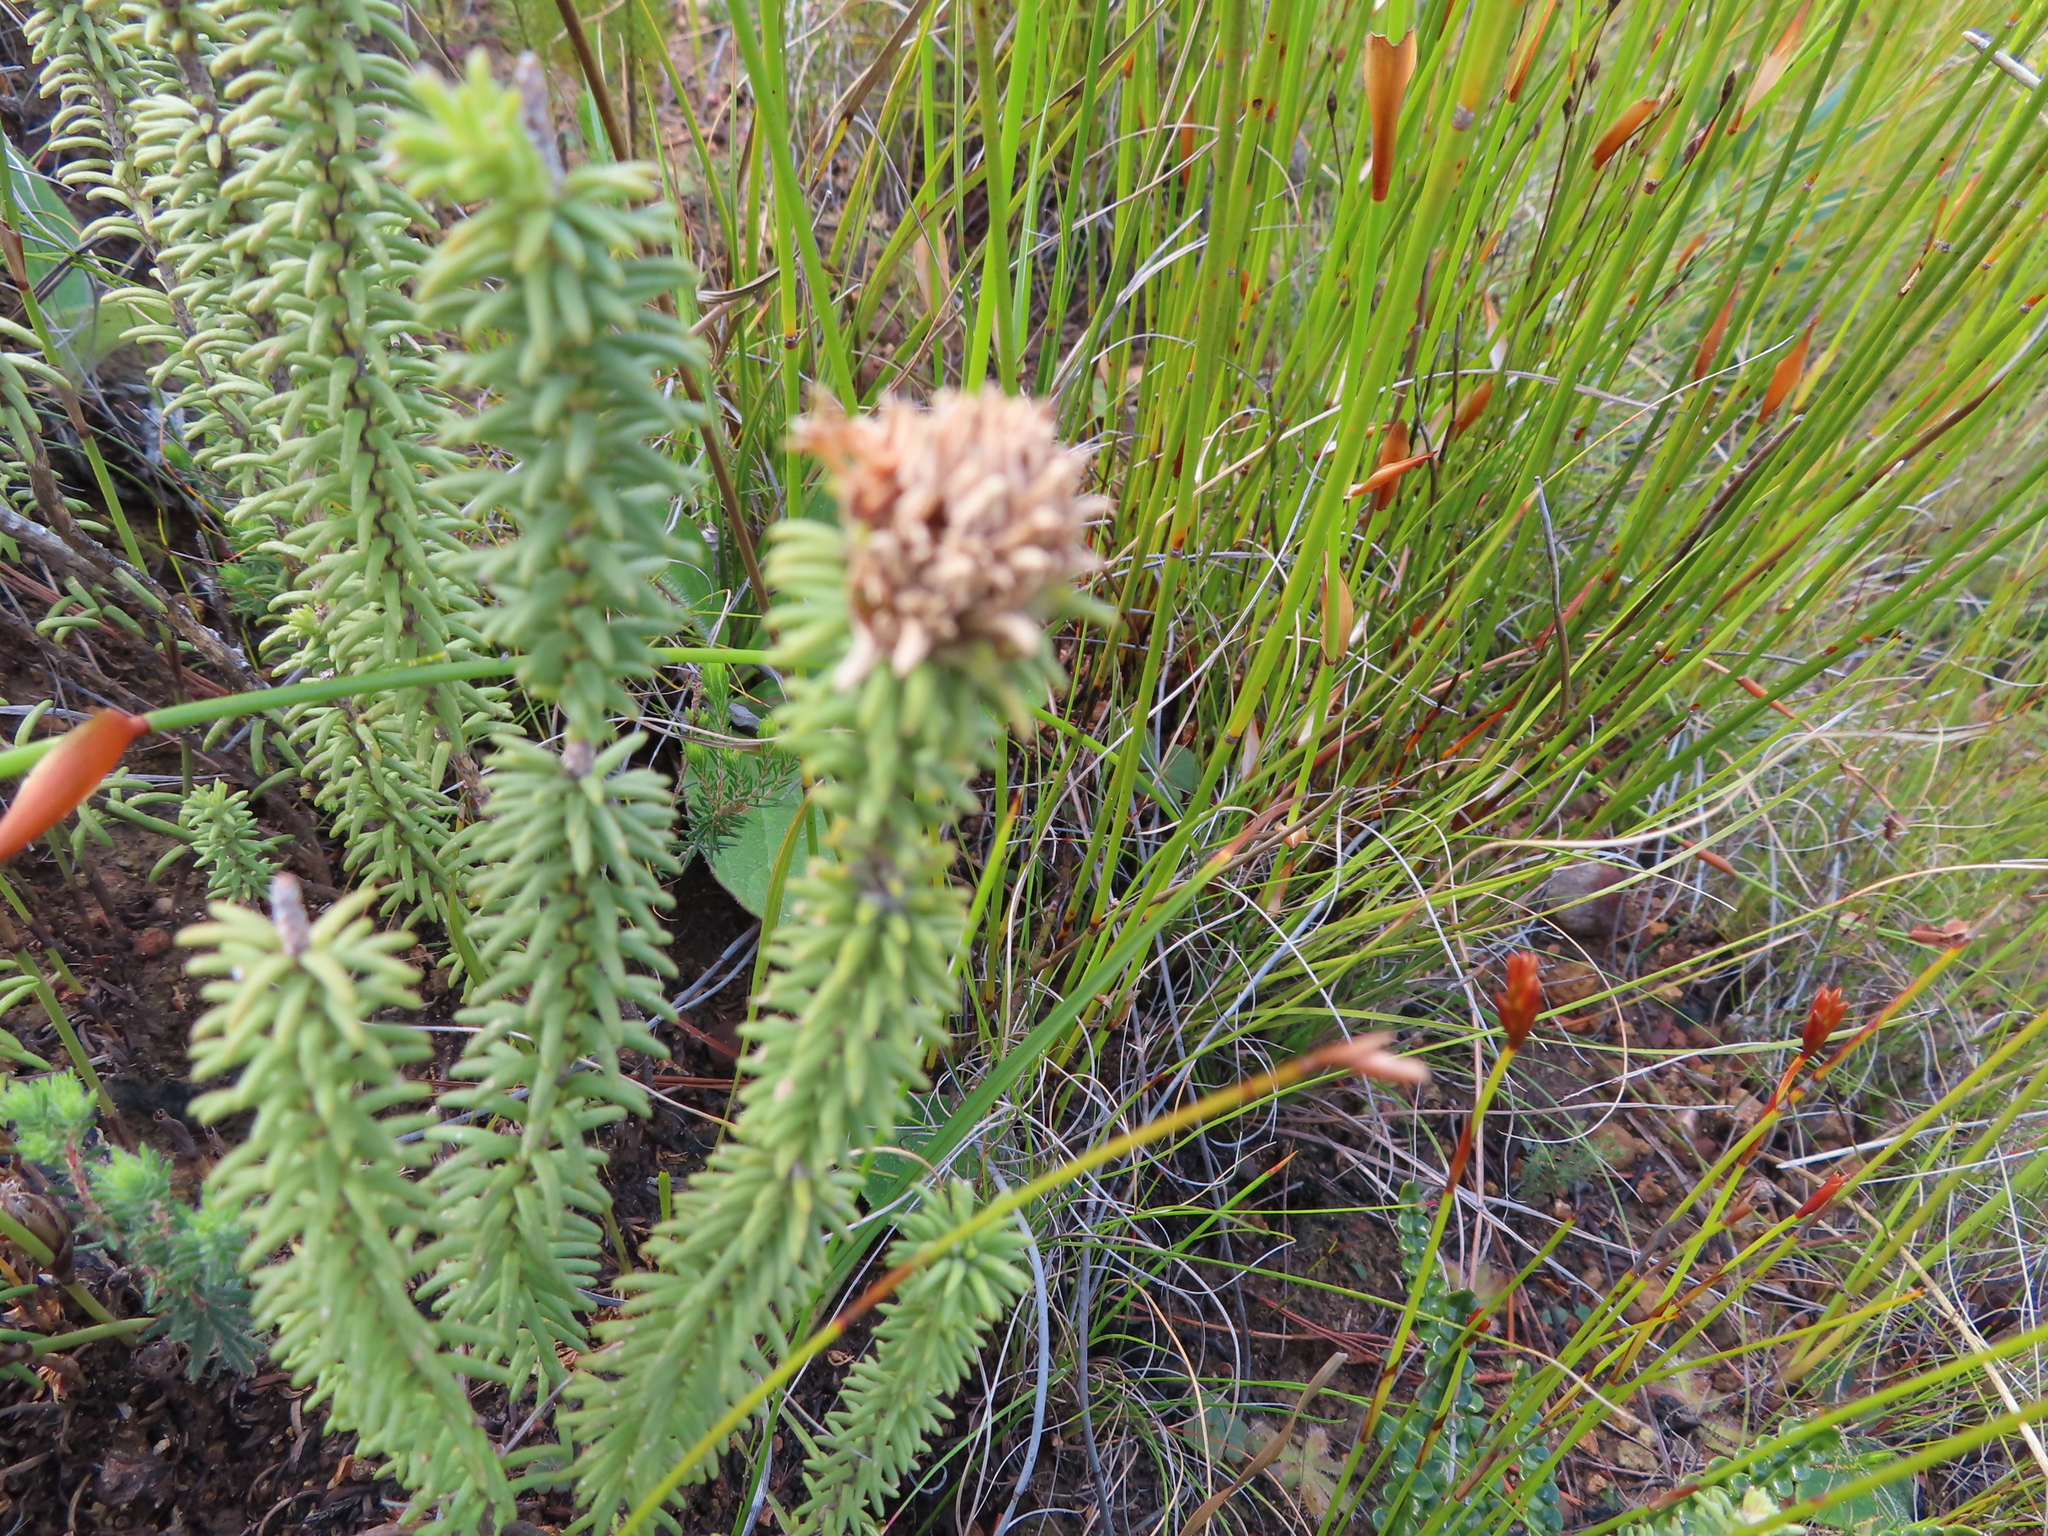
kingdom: Plantae
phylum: Tracheophyta
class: Magnoliopsida
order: Lamiales
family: Stilbaceae
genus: Campylostachys
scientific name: Campylostachys cernua
